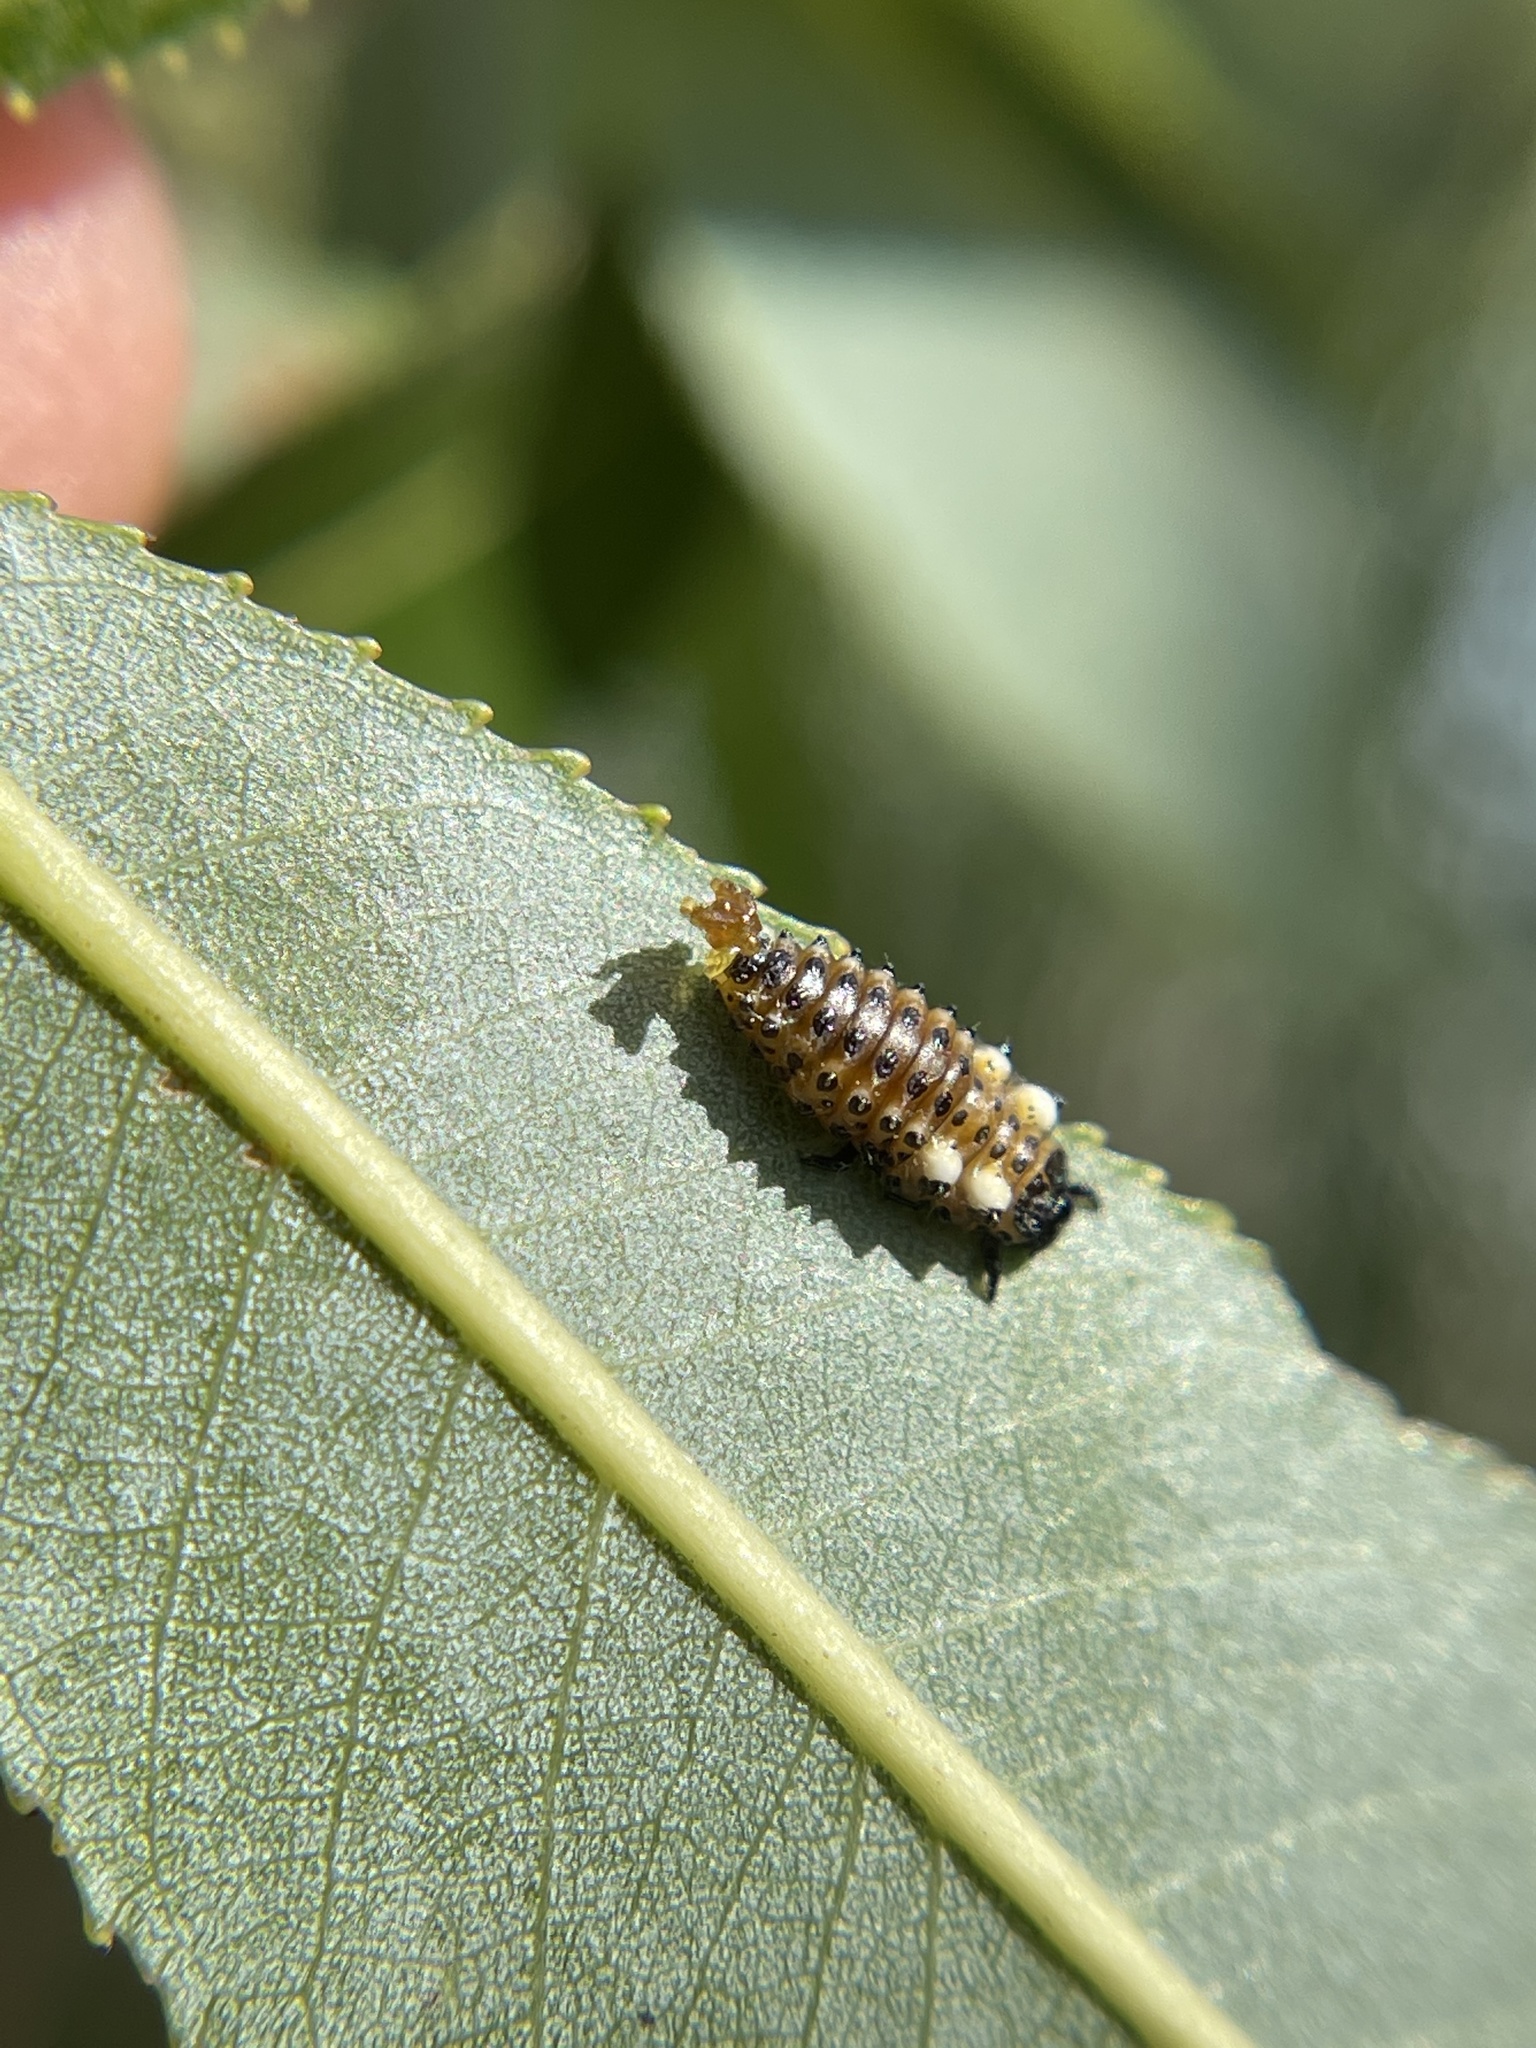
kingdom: Animalia
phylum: Arthropoda
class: Insecta
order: Coleoptera
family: Chrysomelidae
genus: Aethiopocassis
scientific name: Aethiopocassis scripta
